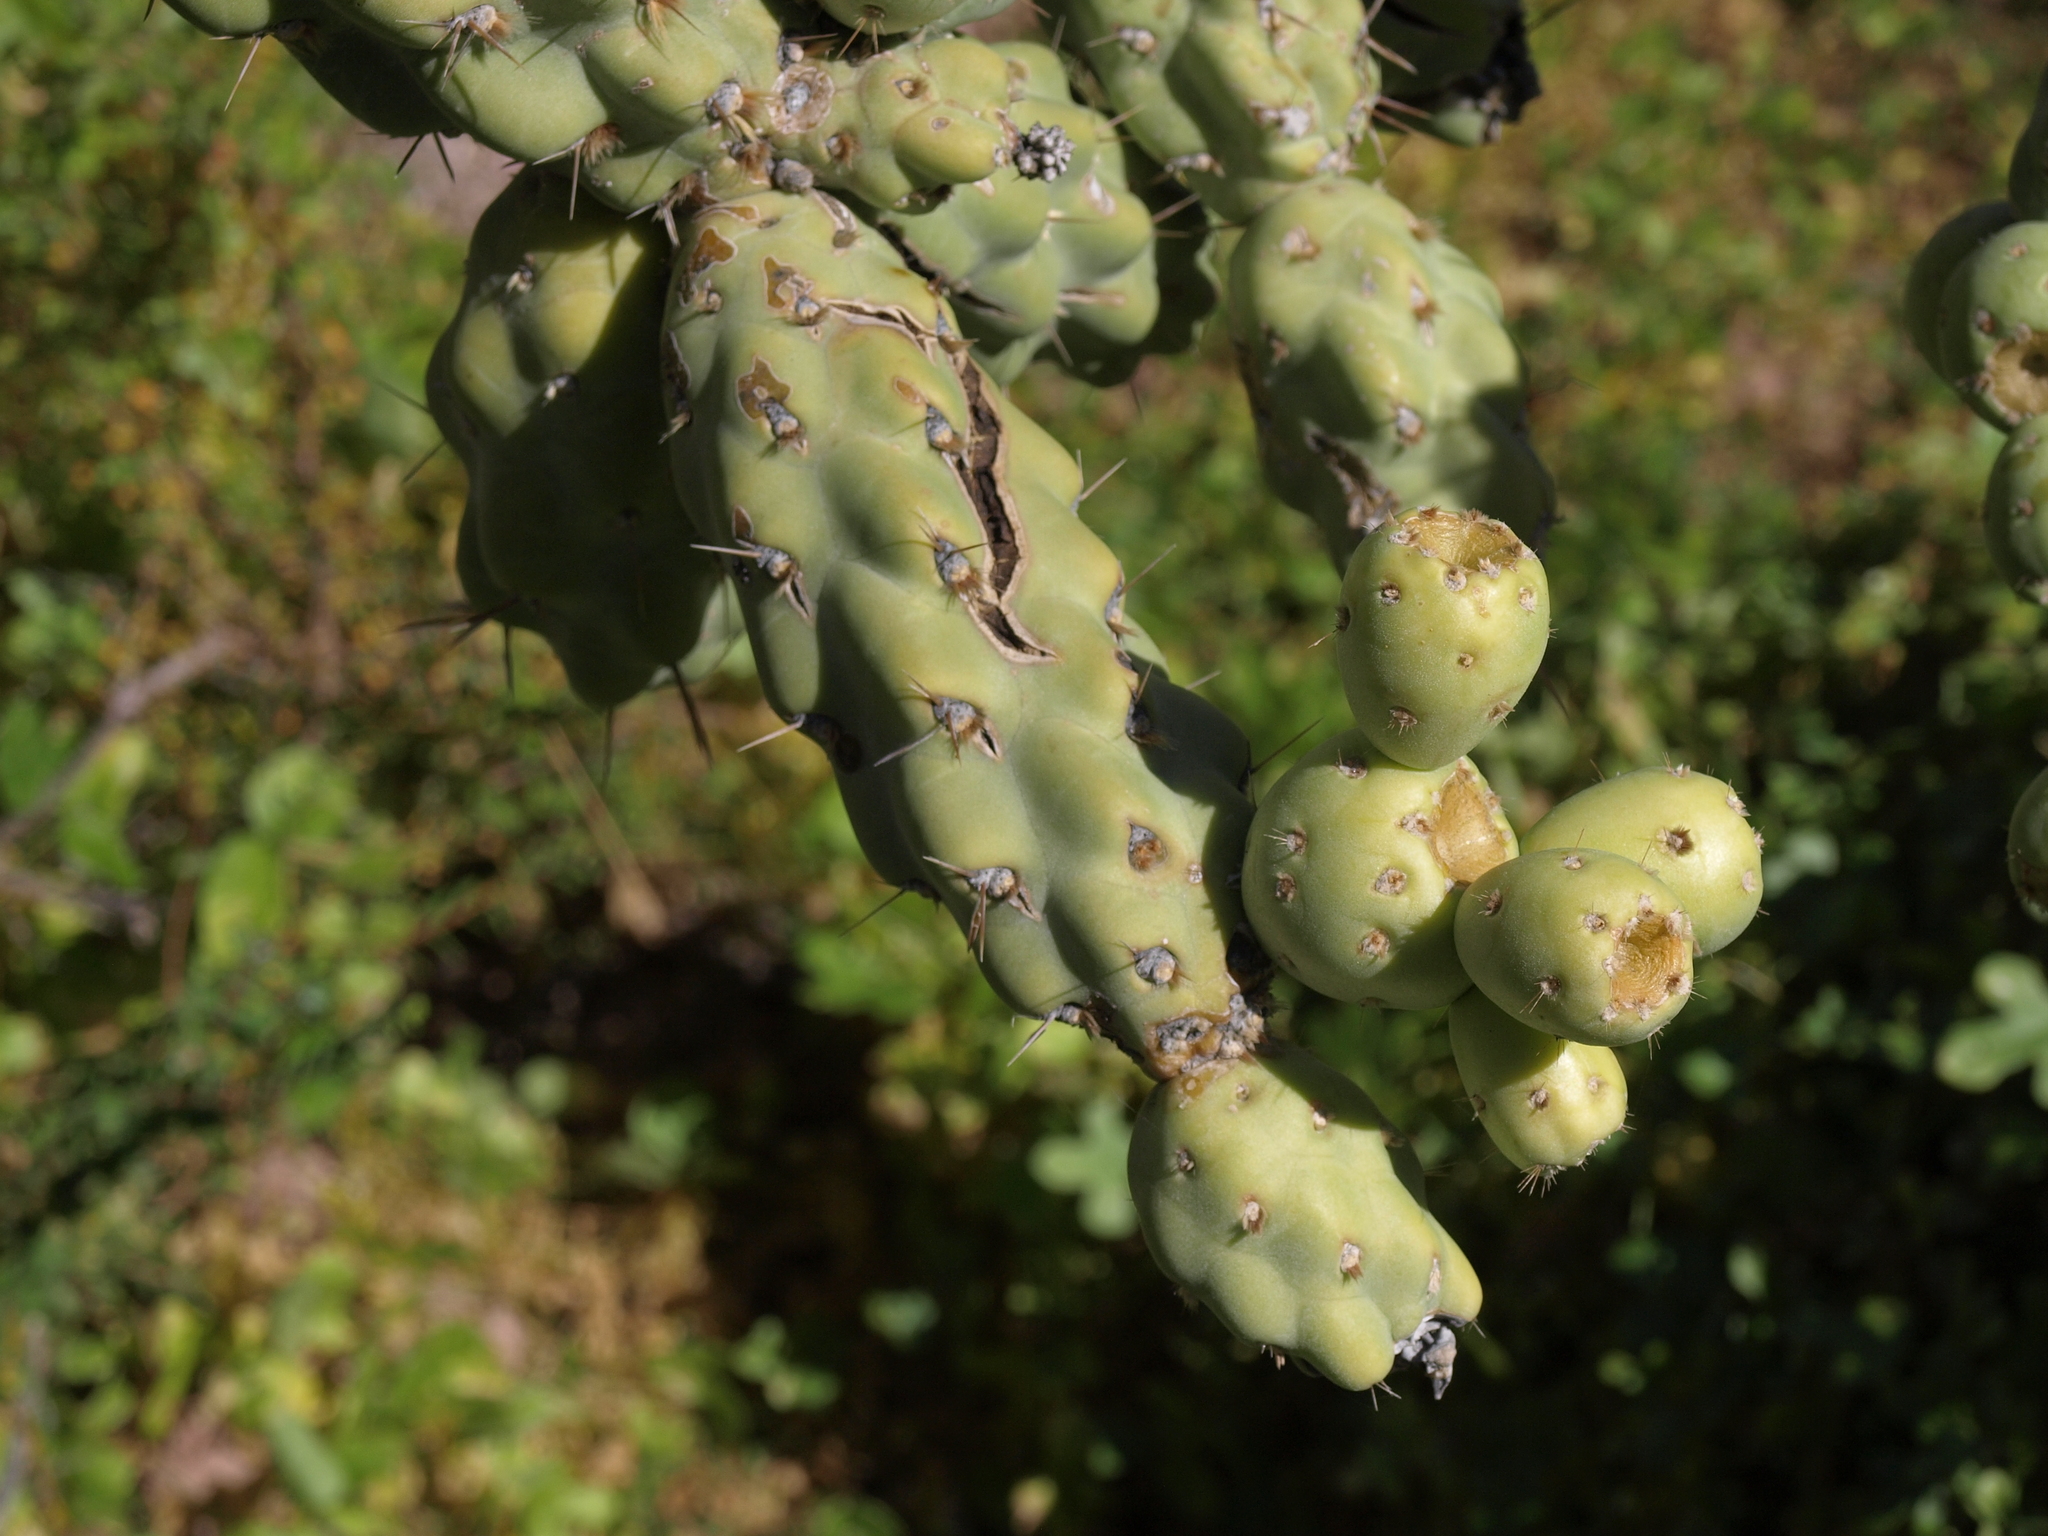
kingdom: Plantae
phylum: Tracheophyta
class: Magnoliopsida
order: Caryophyllales
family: Cactaceae
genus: Cylindropuntia
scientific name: Cylindropuntia cholla
